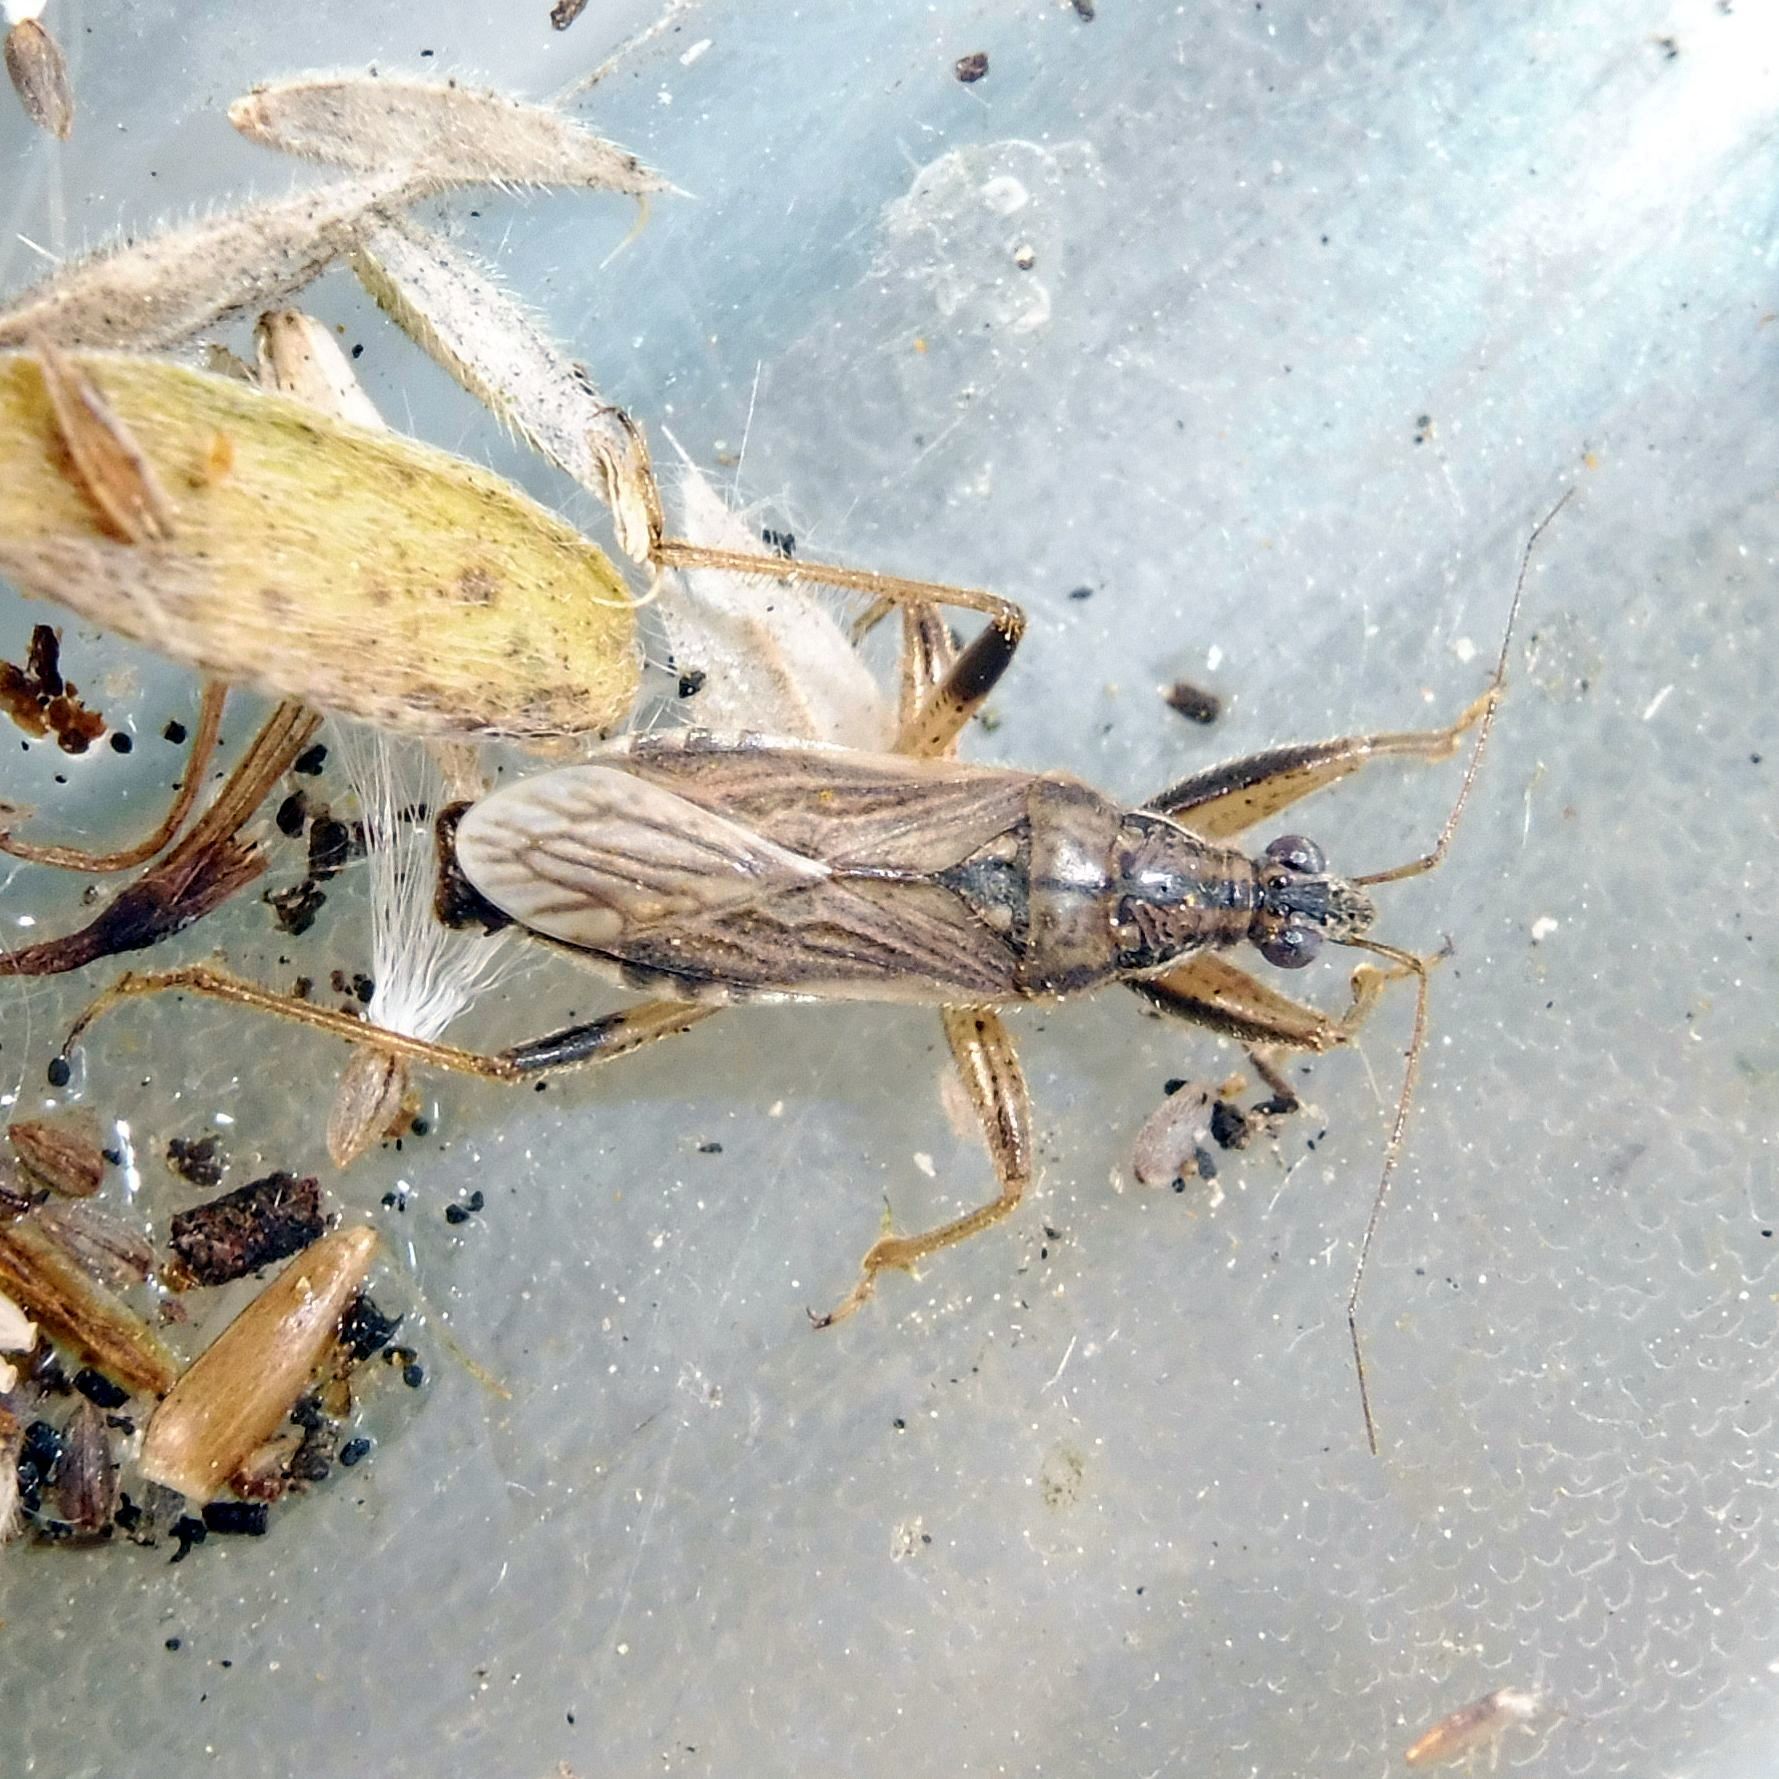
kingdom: Animalia
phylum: Arthropoda
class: Insecta
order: Hemiptera
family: Nabidae
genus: Himacerus
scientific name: Himacerus major
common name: Damsel bug
